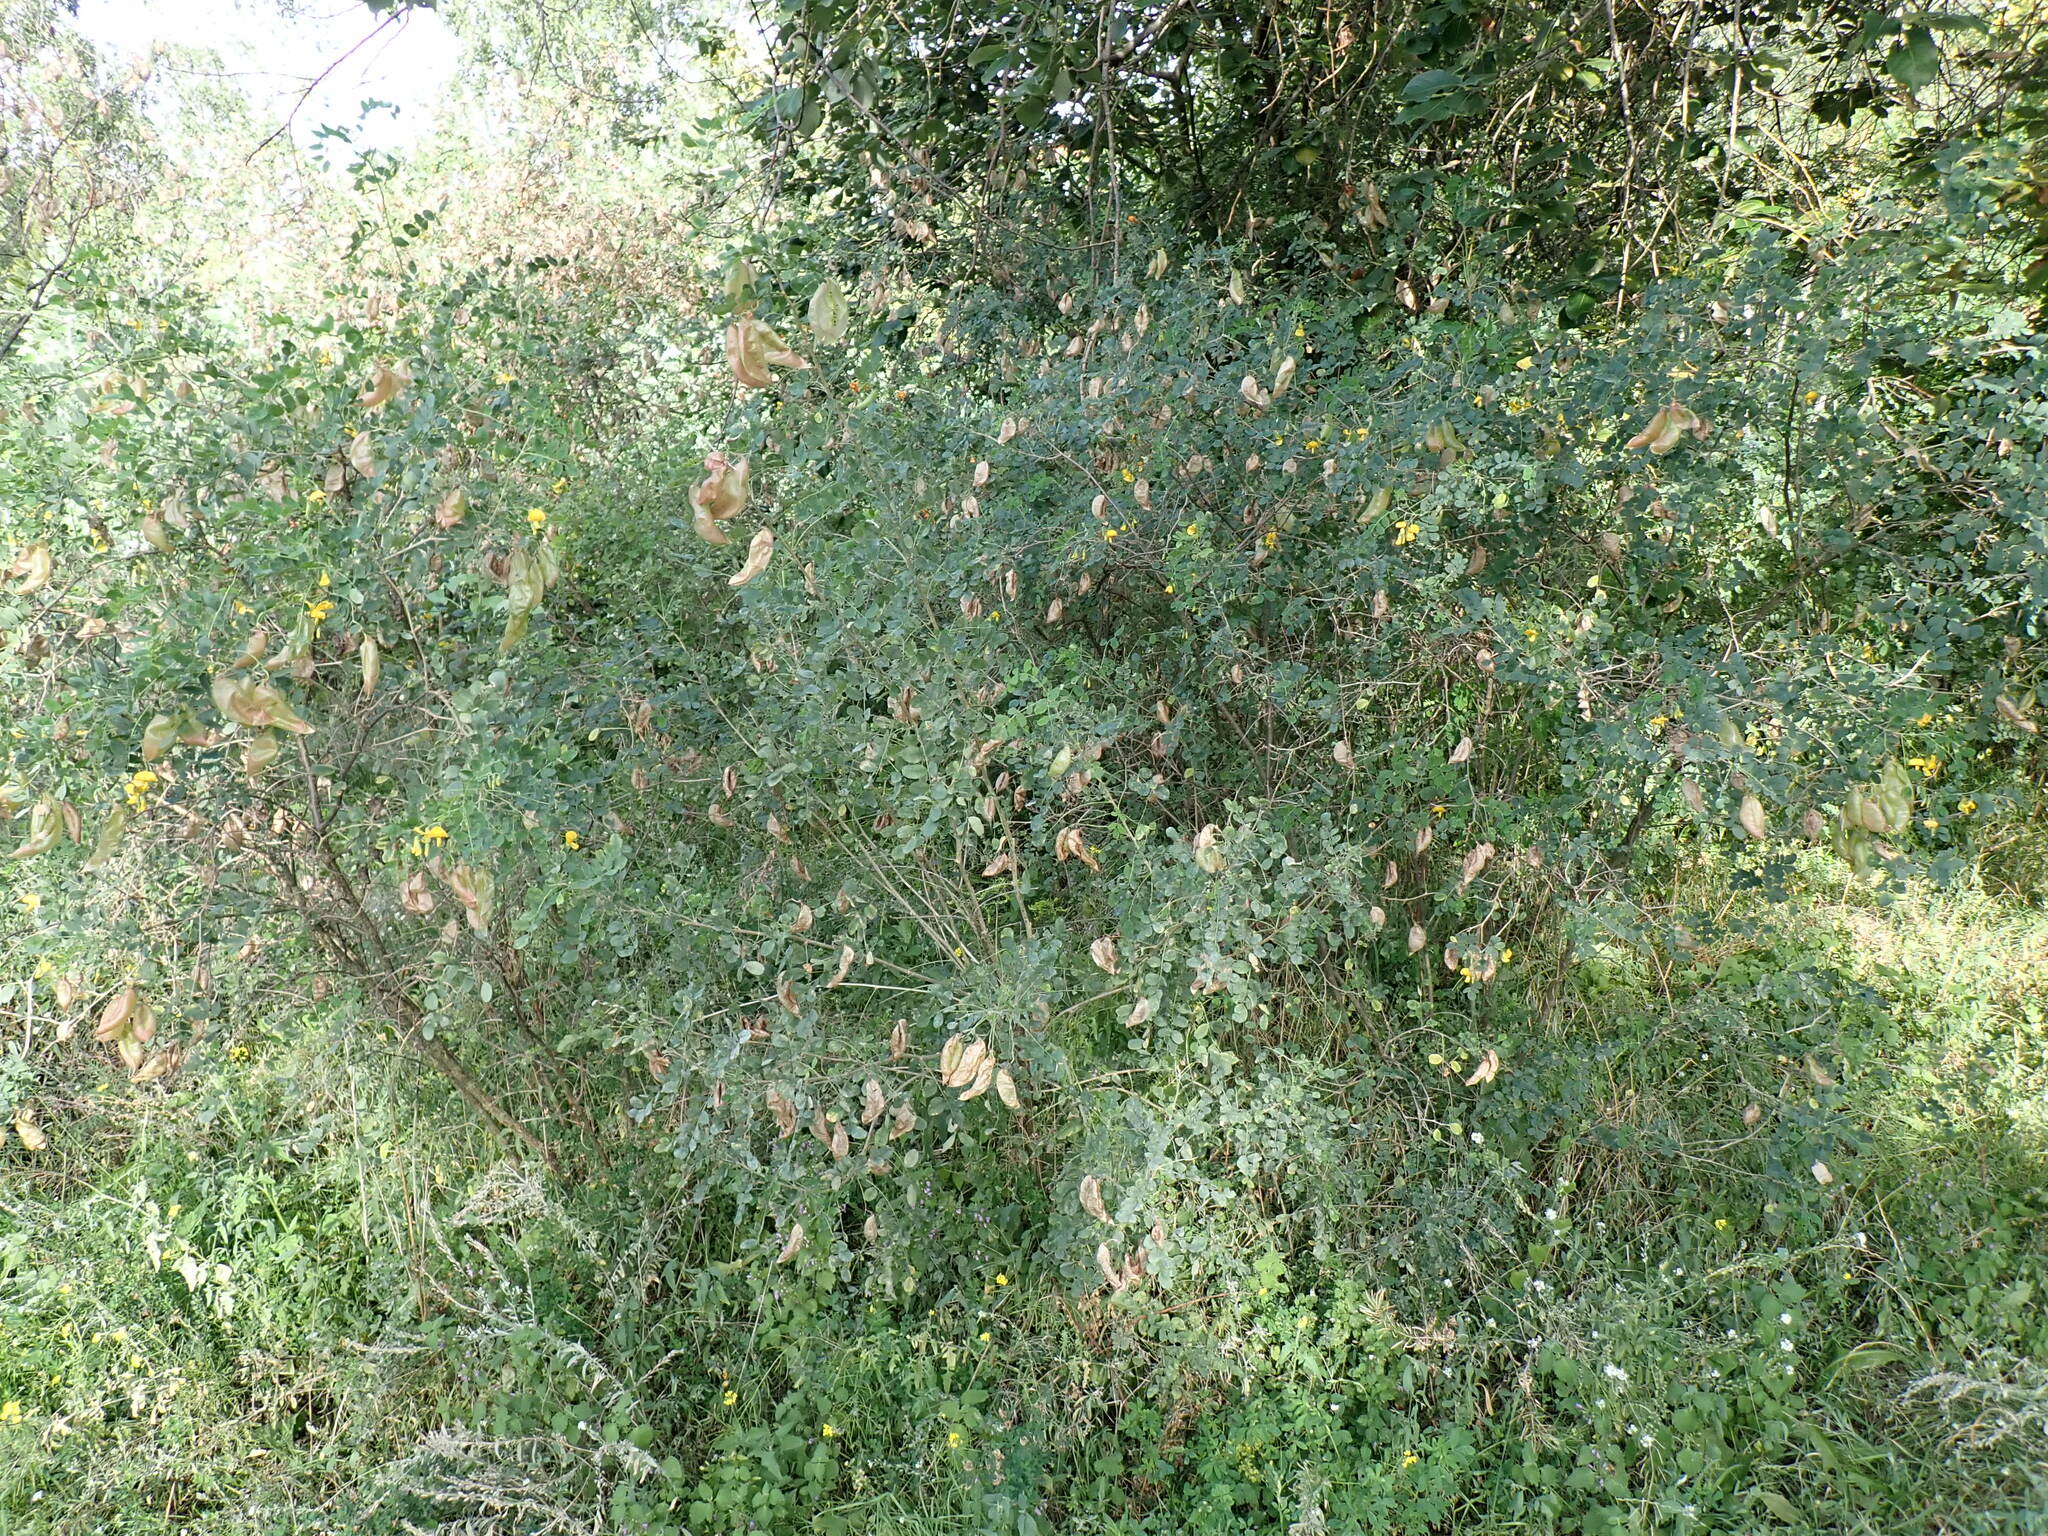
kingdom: Plantae
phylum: Tracheophyta
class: Magnoliopsida
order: Fabales
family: Fabaceae
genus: Colutea
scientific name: Colutea arborescens
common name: Bladder-senna
